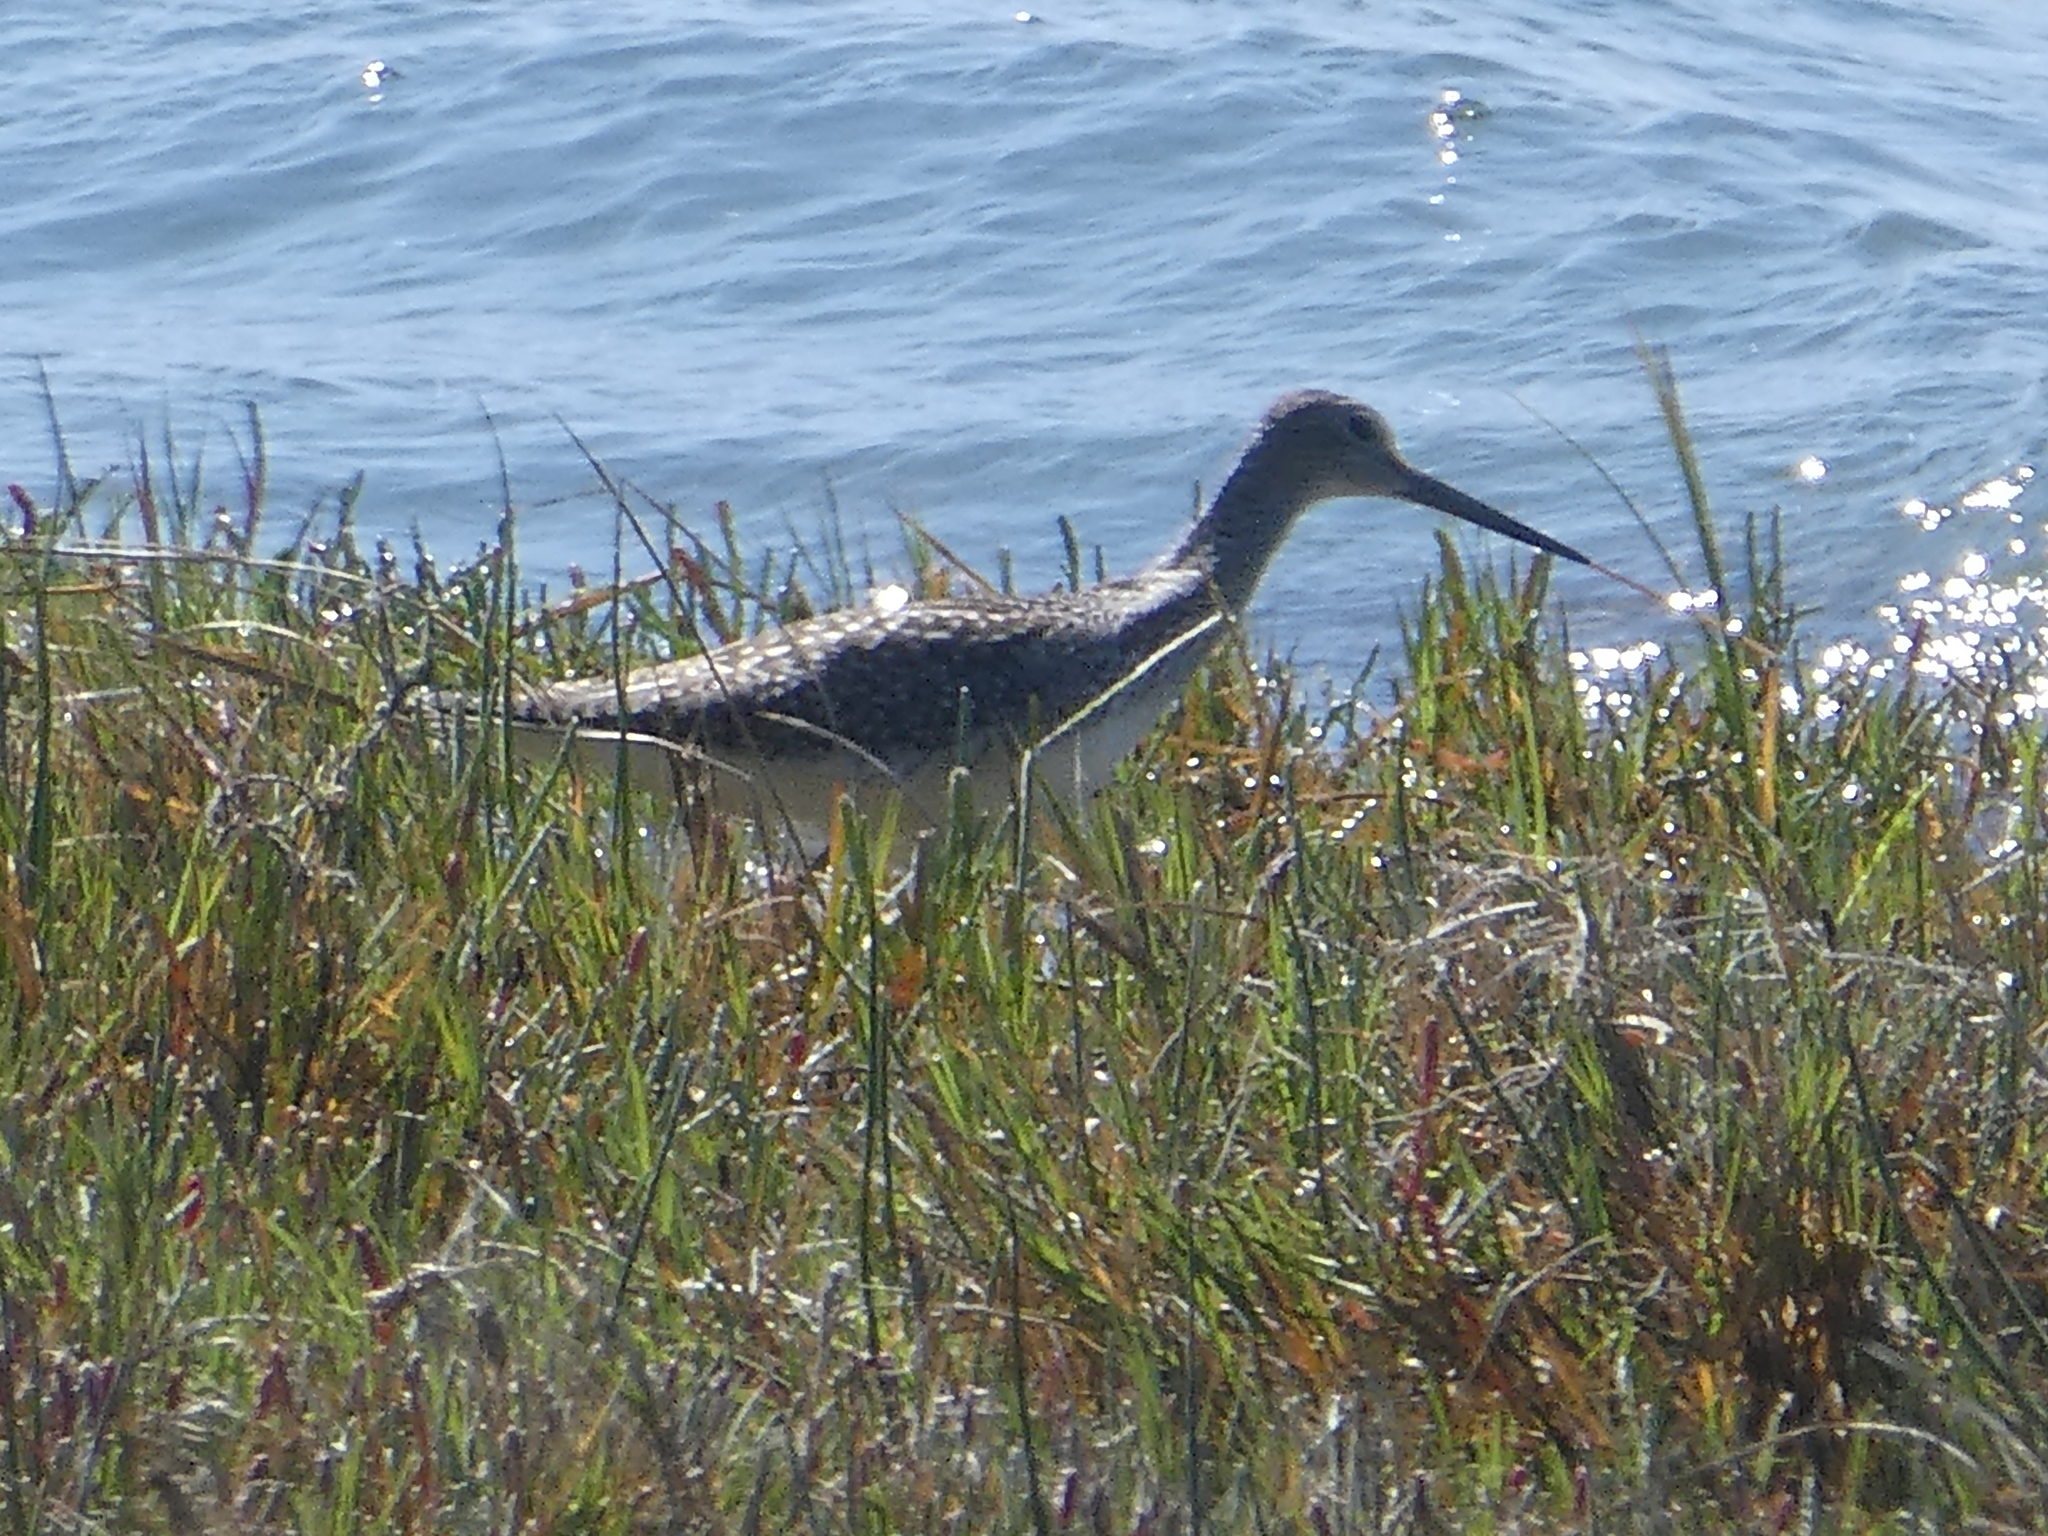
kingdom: Animalia
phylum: Chordata
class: Aves
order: Charadriiformes
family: Scolopacidae
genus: Tringa
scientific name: Tringa melanoleuca
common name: Greater yellowlegs
